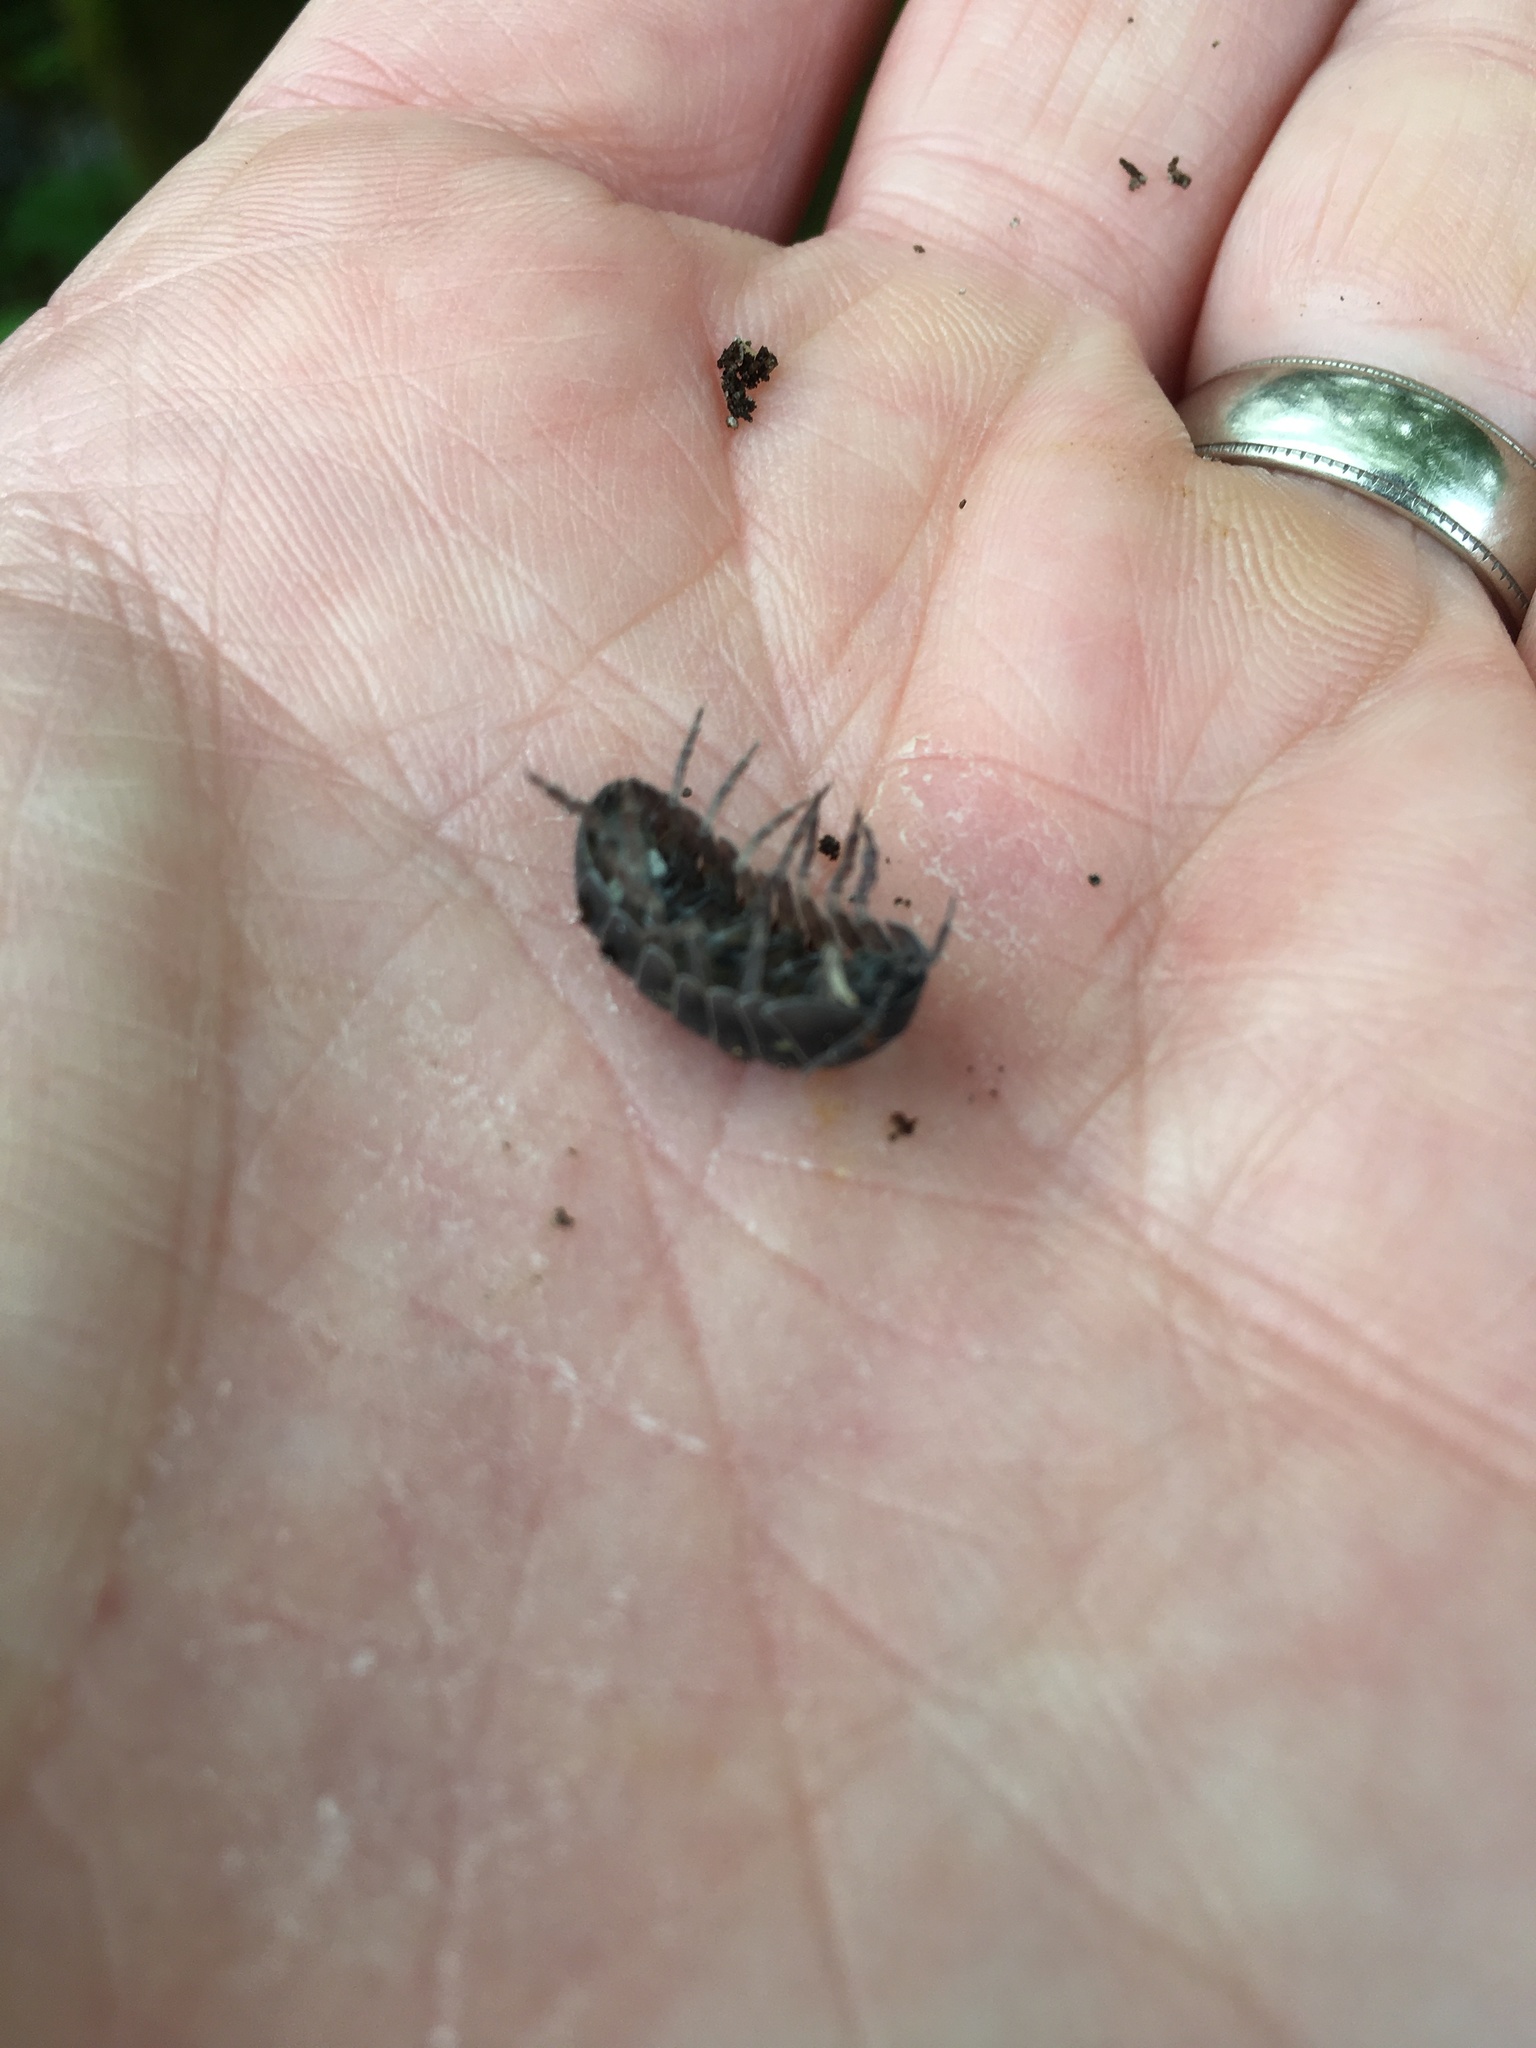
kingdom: Animalia
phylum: Arthropoda
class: Malacostraca
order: Isopoda
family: Armadillidiidae
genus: Armadillidium
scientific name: Armadillidium vulgare
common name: Common pill woodlouse
